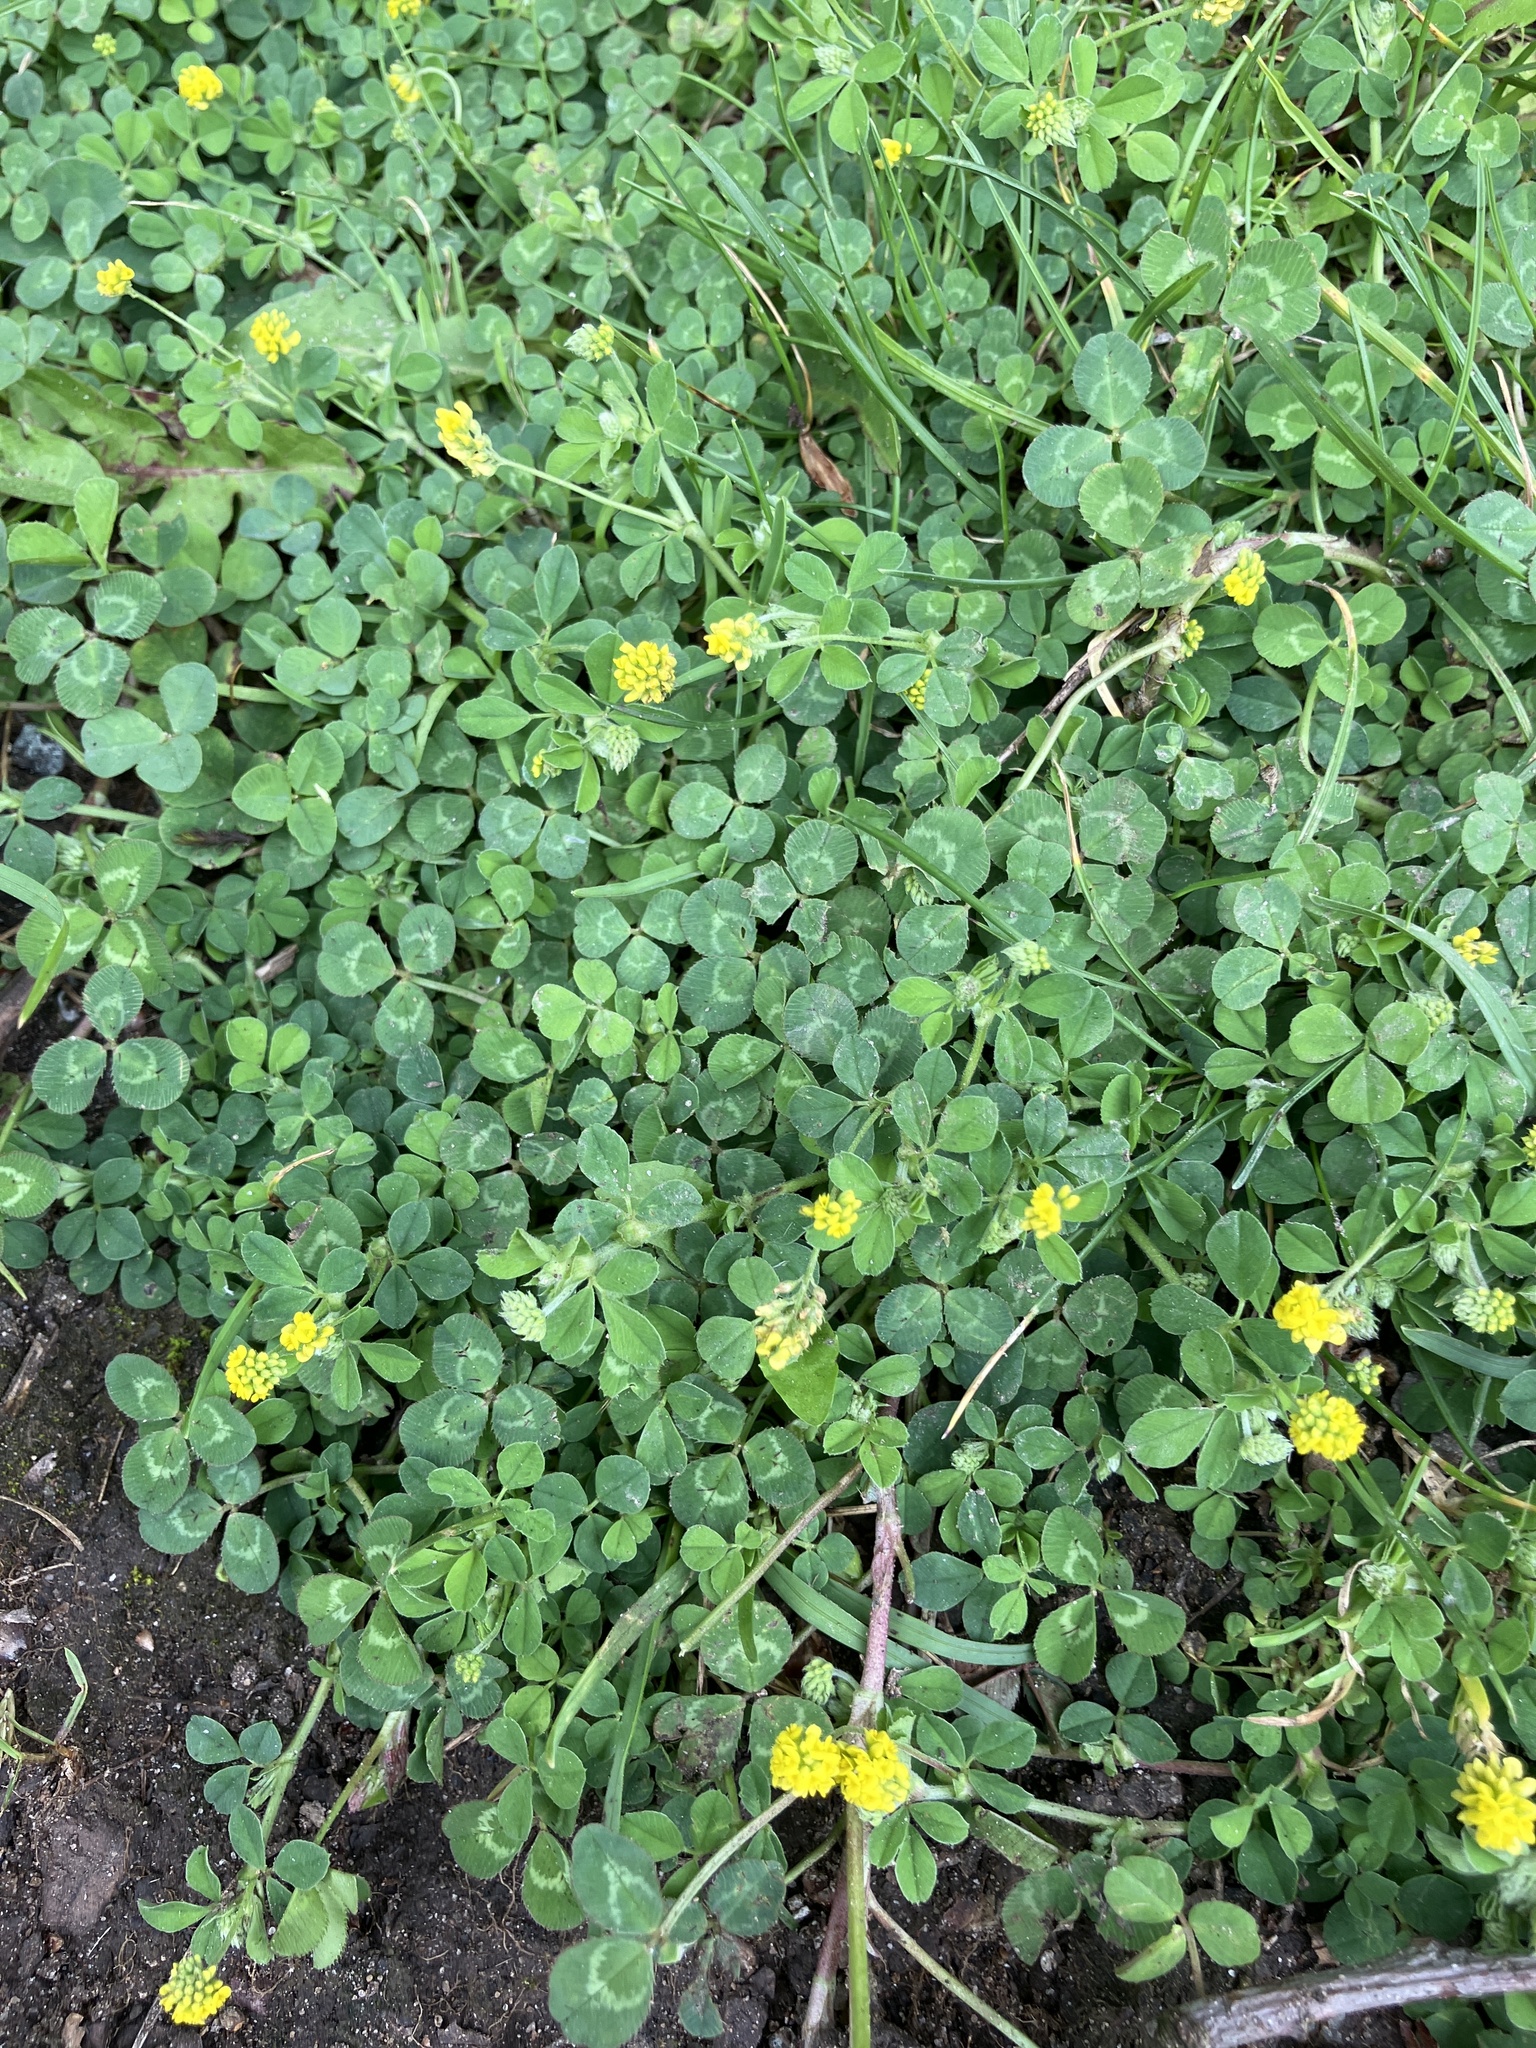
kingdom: Plantae
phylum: Tracheophyta
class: Magnoliopsida
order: Fabales
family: Fabaceae
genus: Medicago
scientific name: Medicago lupulina
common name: Black medick
